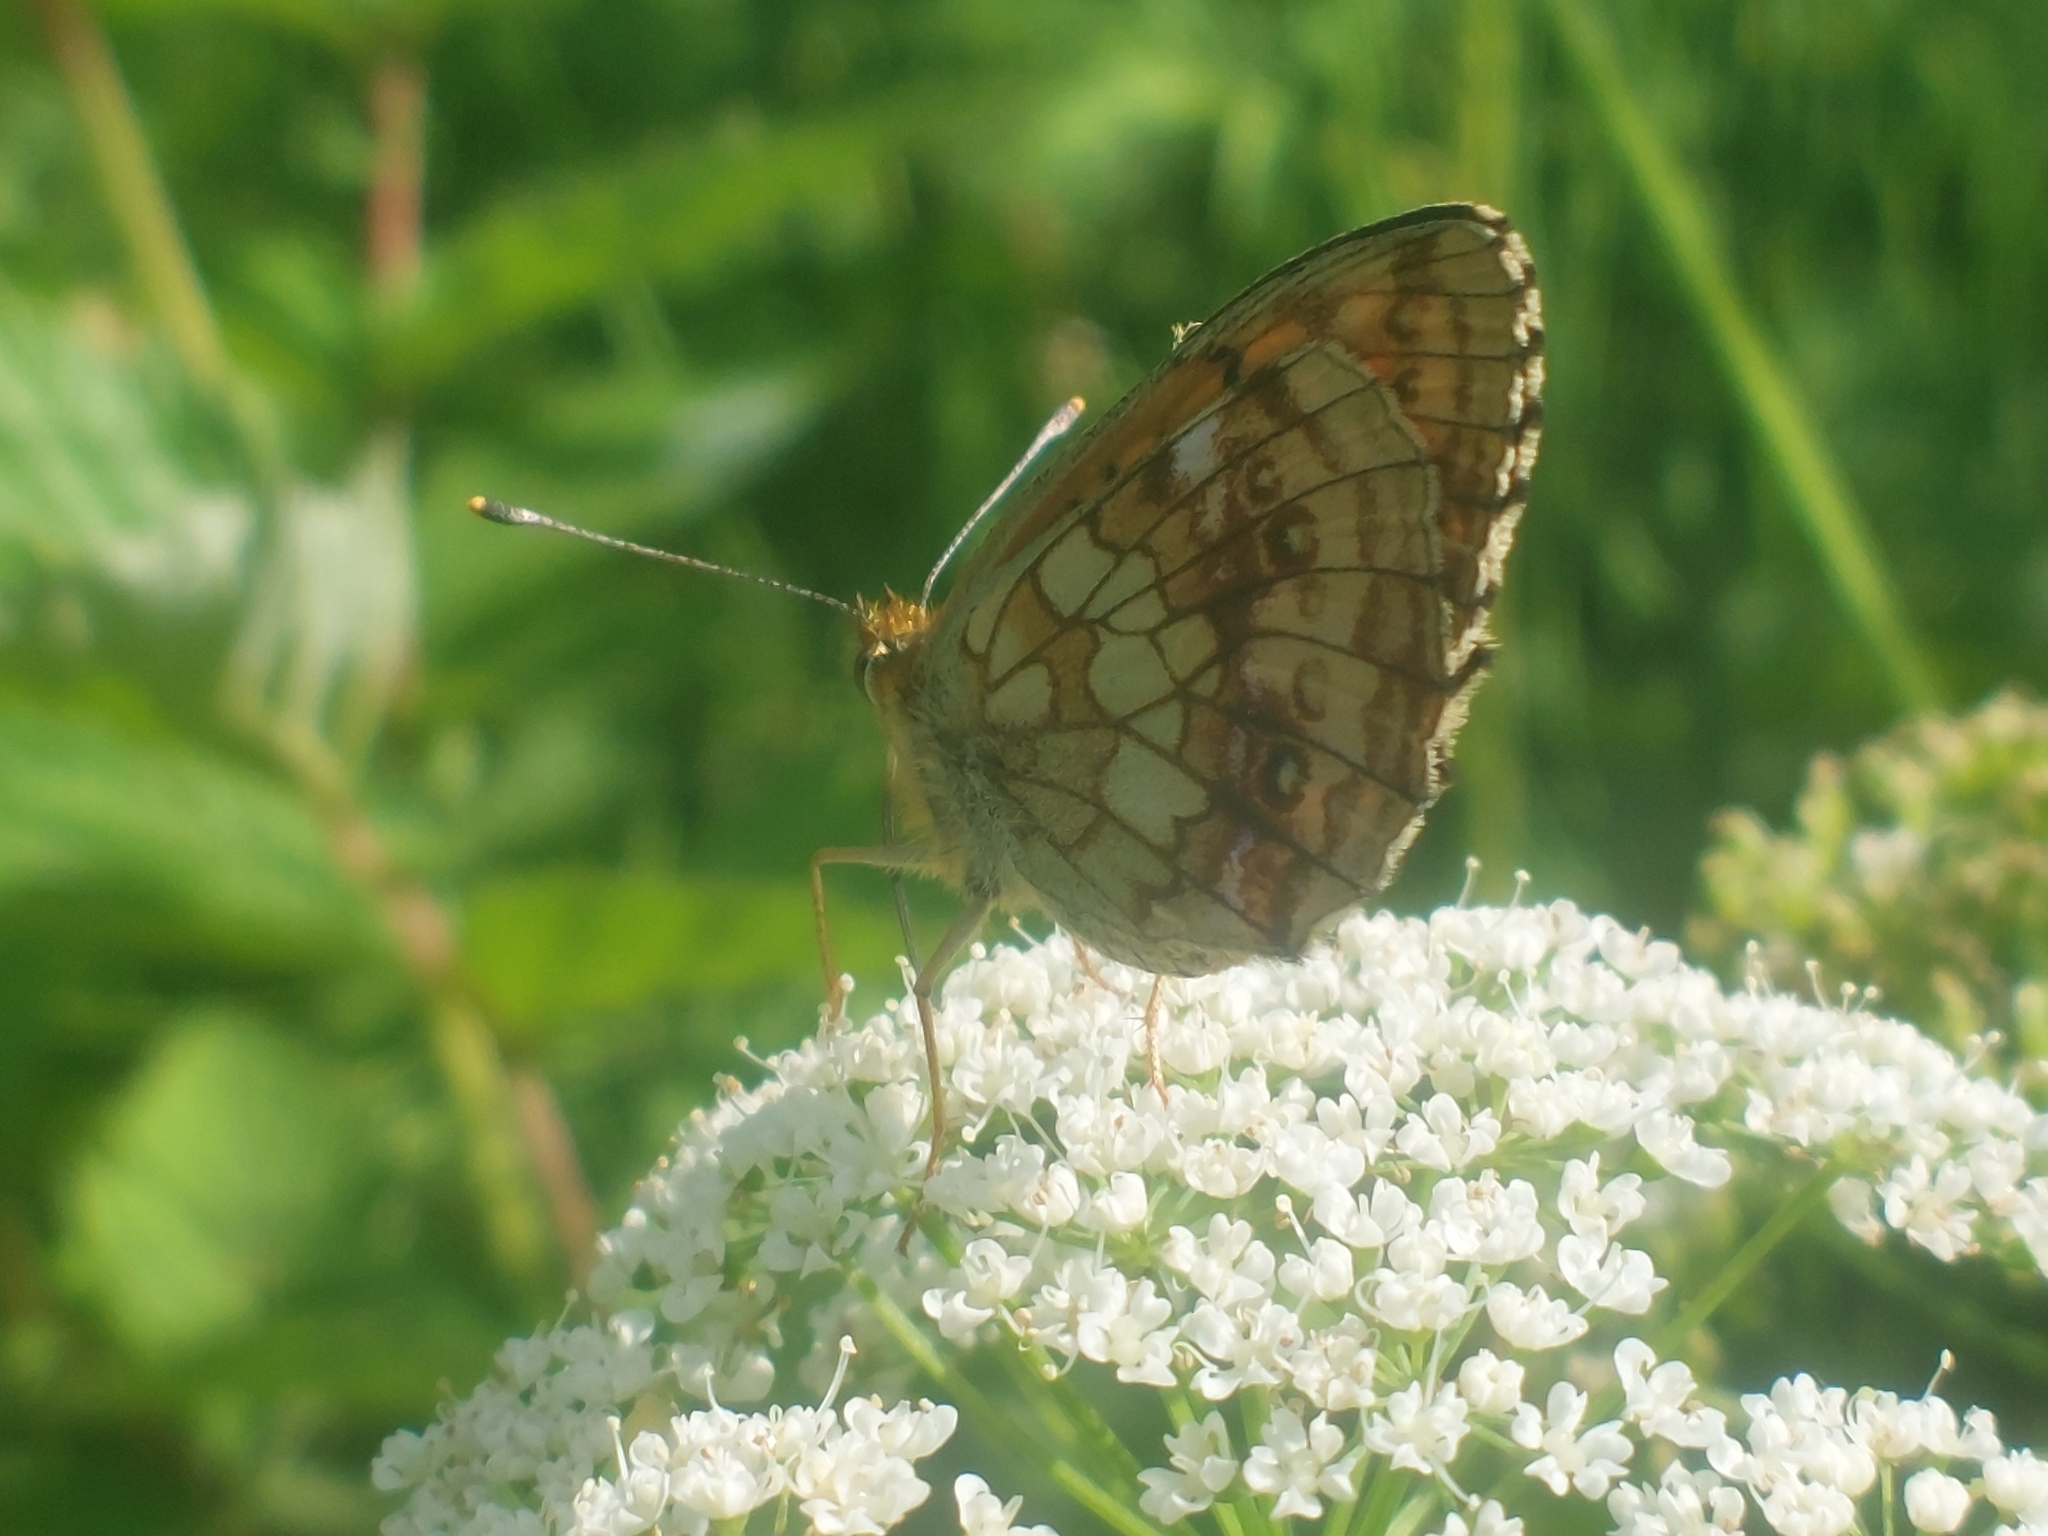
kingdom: Animalia
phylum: Arthropoda
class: Insecta
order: Lepidoptera
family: Nymphalidae
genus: Brenthis
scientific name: Brenthis ino
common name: Lesser marbled fritillary
